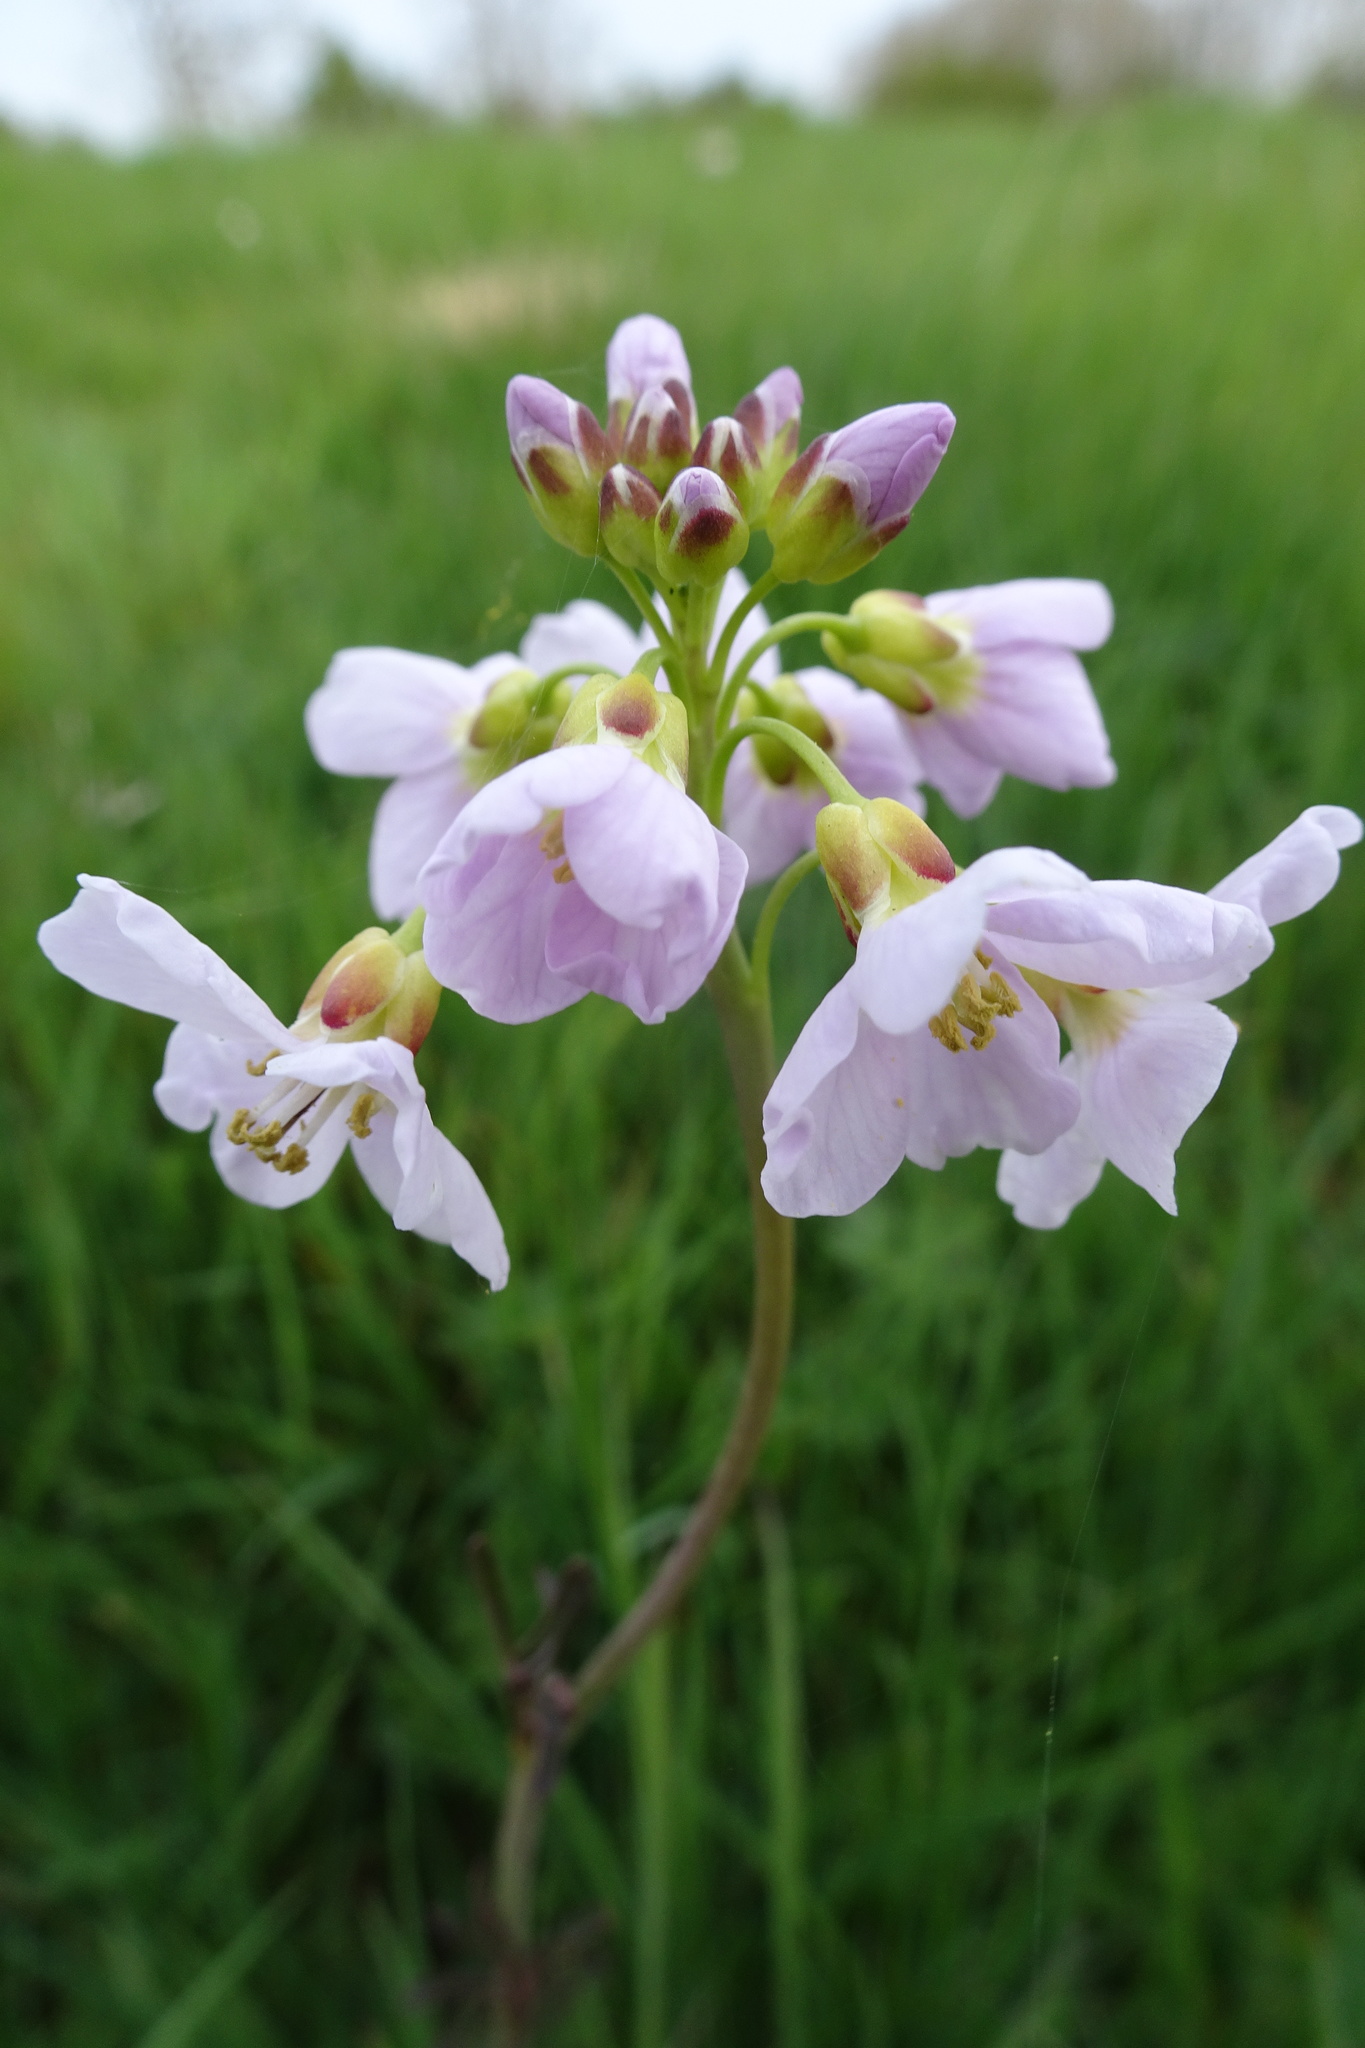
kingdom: Plantae
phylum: Tracheophyta
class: Magnoliopsida
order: Brassicales
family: Brassicaceae
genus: Cardamine
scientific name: Cardamine pratensis
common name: Cuckoo flower
